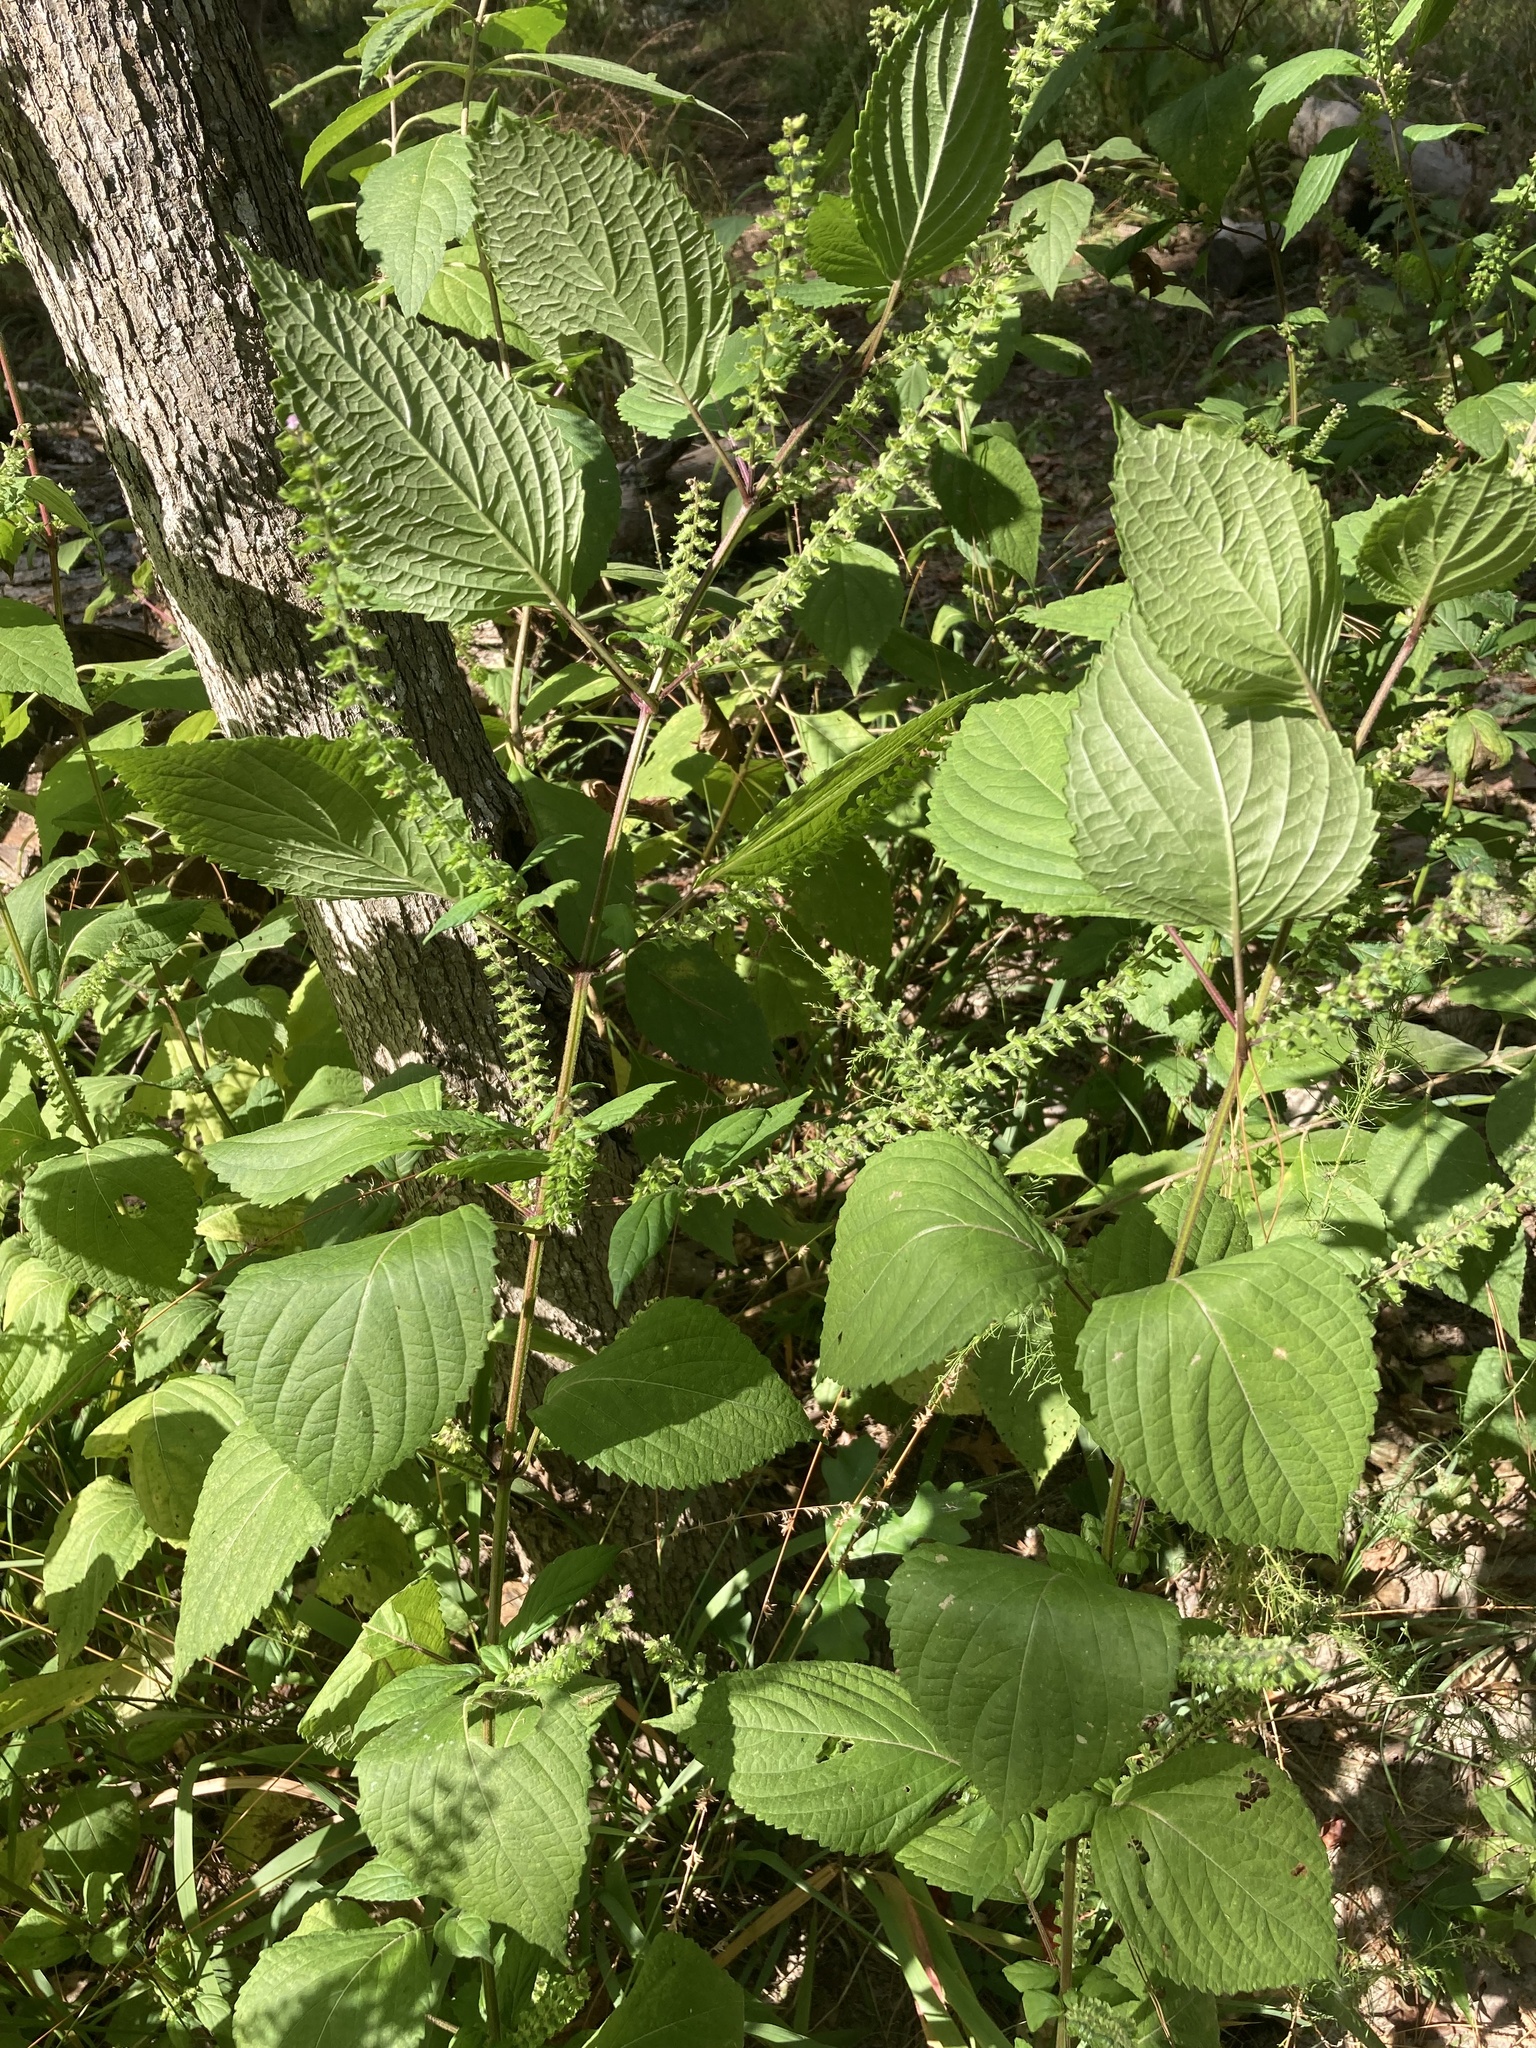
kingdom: Plantae
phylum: Tracheophyta
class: Magnoliopsida
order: Lamiales
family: Lamiaceae
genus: Perilla
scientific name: Perilla frutescens
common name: Perilla
